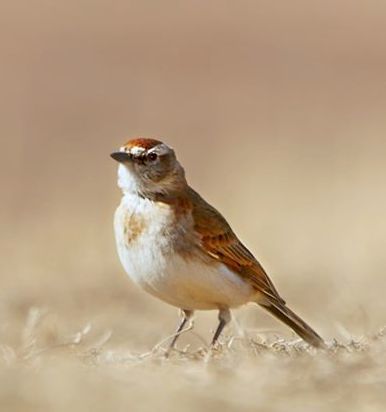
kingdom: Animalia
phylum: Chordata
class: Aves
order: Passeriformes
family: Alaudidae
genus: Calandrella
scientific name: Calandrella cinerea
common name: Red-capped lark
